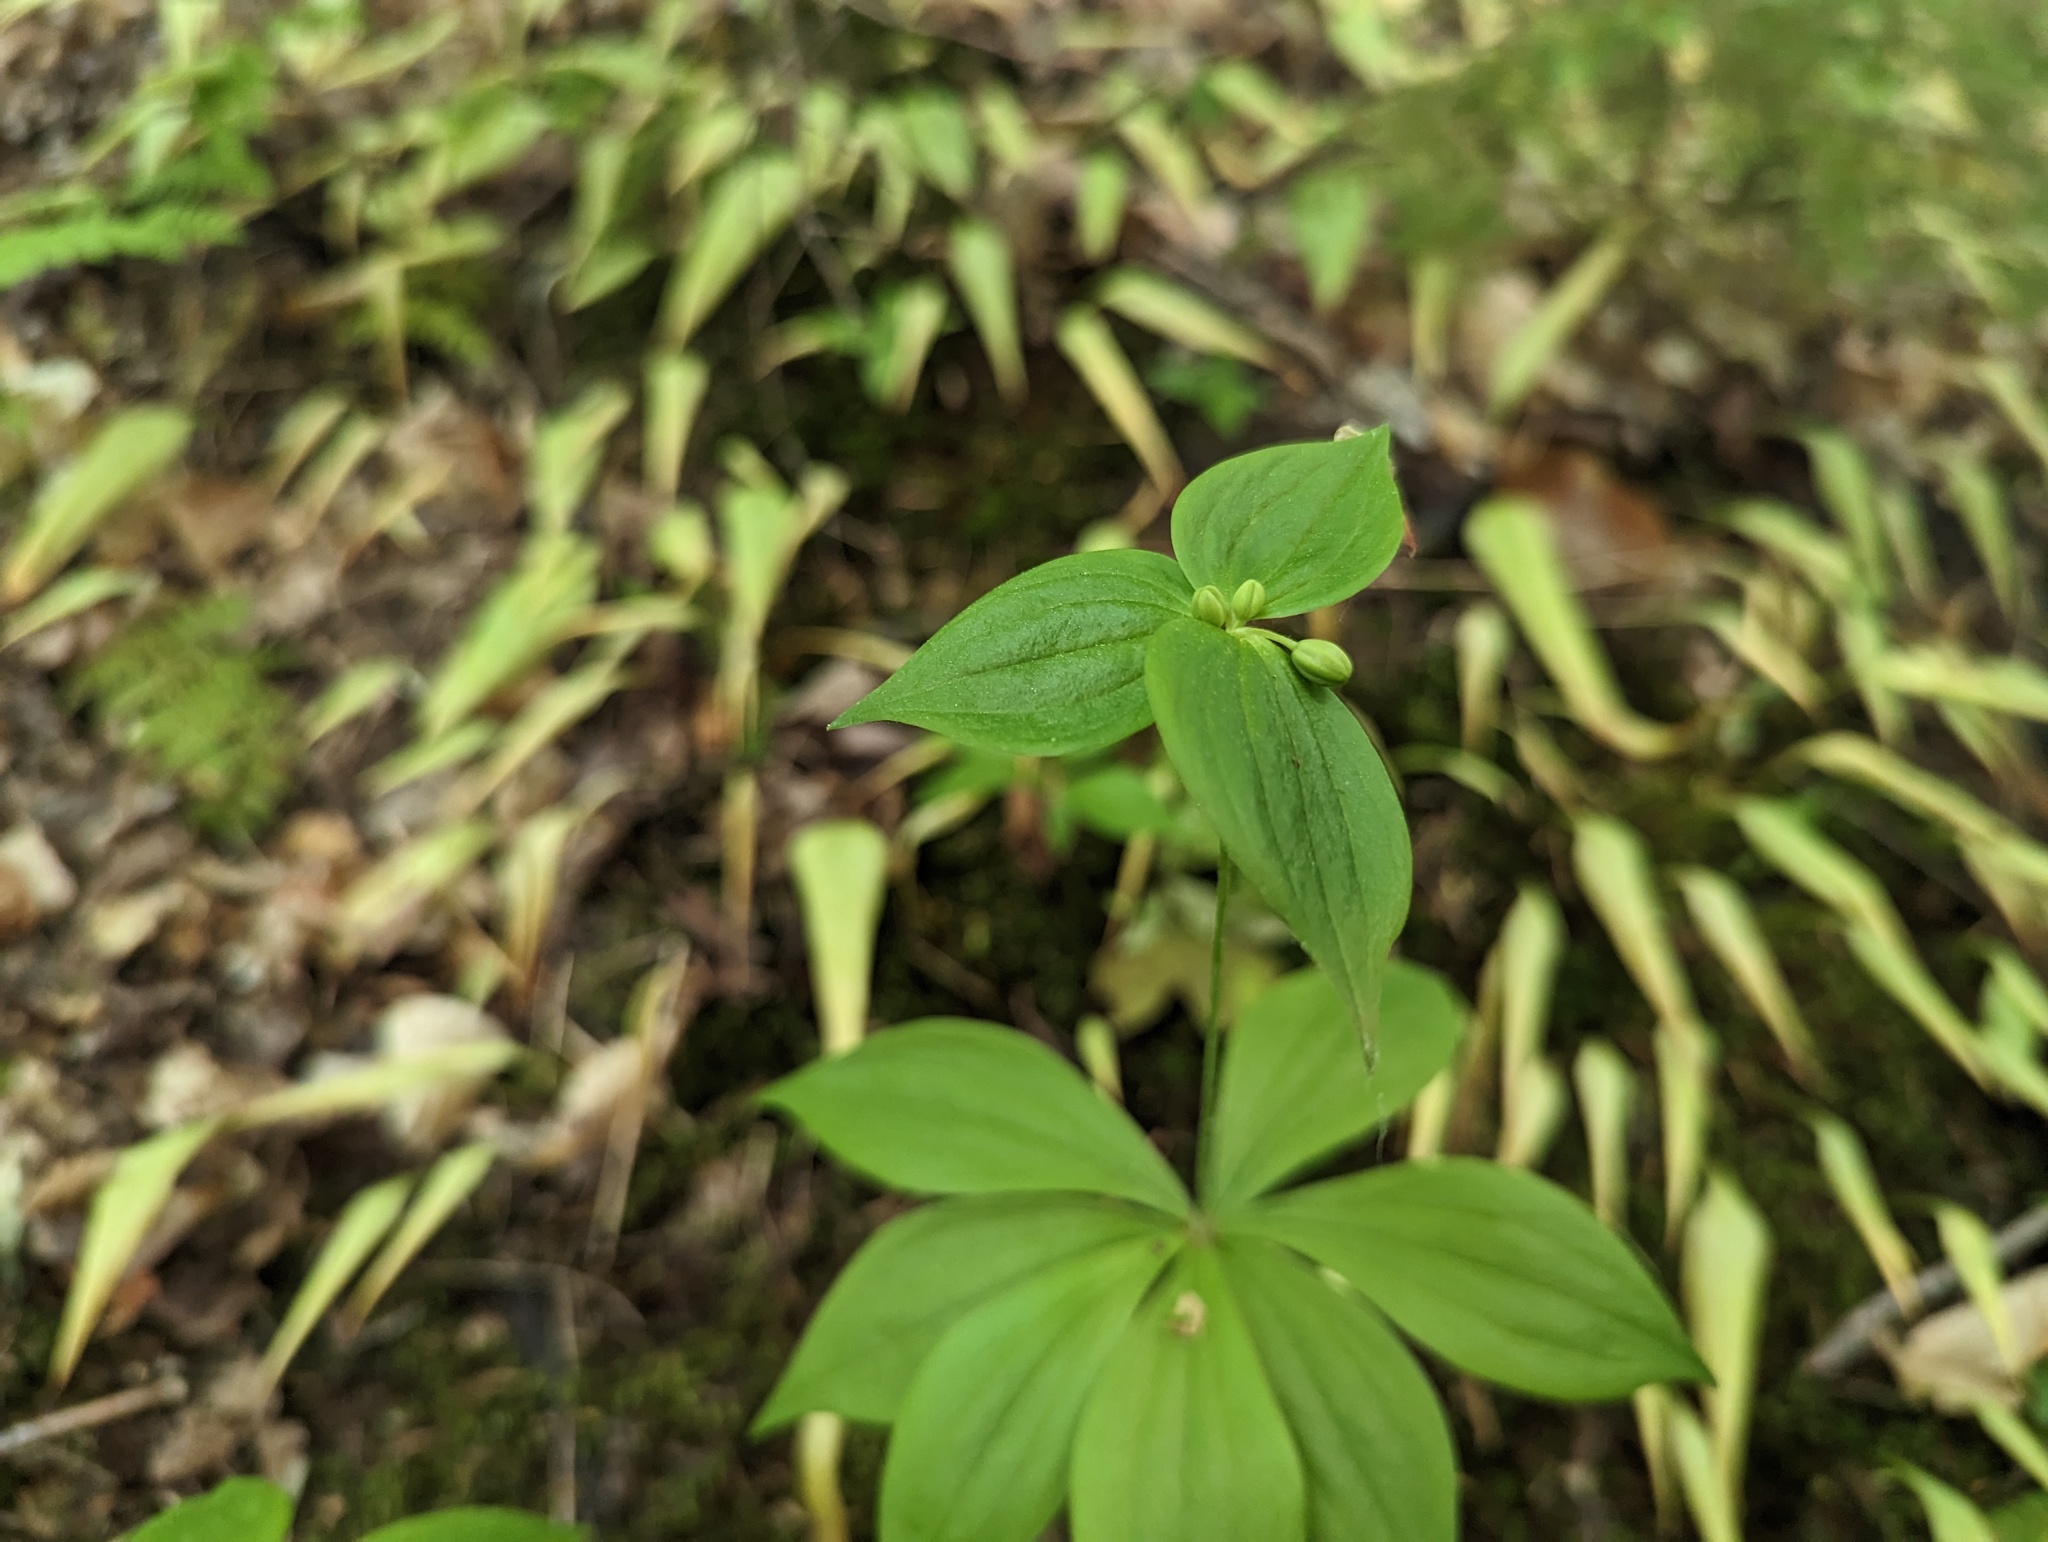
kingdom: Plantae
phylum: Tracheophyta
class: Liliopsida
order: Liliales
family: Liliaceae
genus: Medeola
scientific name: Medeola virginiana
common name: Indian cucumber-root
